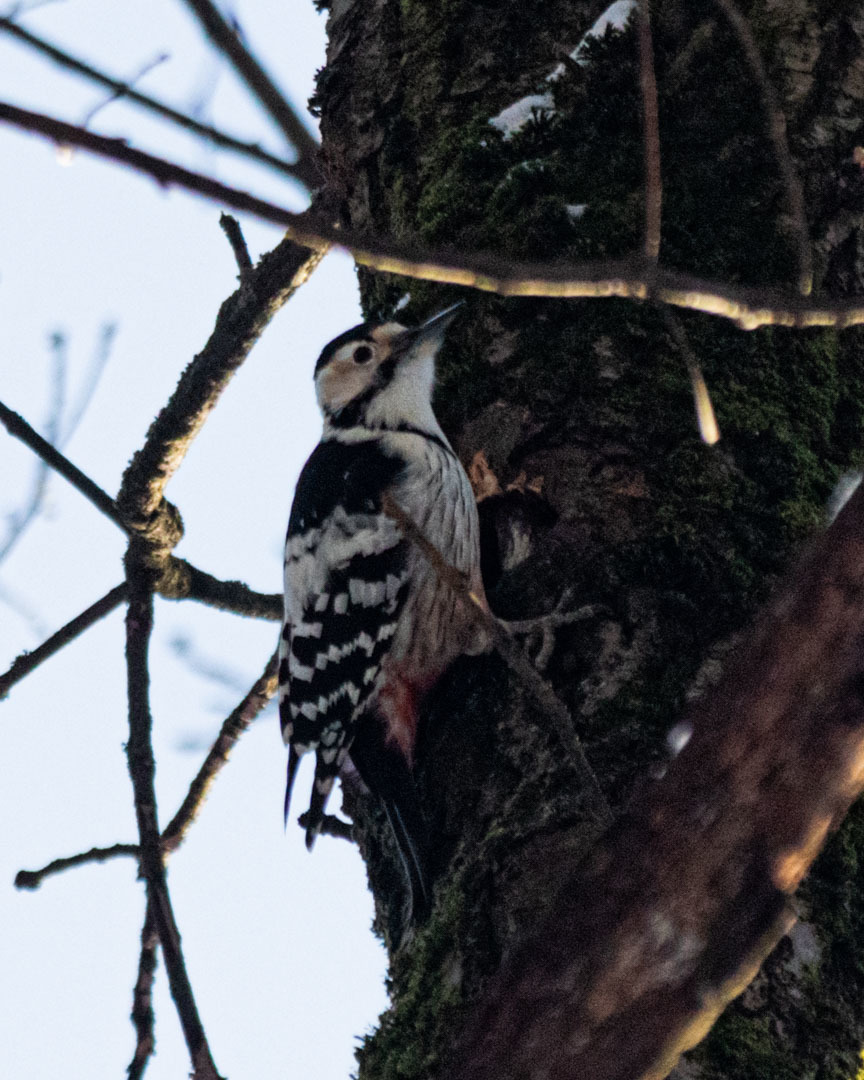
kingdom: Animalia
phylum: Chordata
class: Aves
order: Piciformes
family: Picidae
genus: Dendrocopos
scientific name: Dendrocopos leucotos
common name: White-backed woodpecker
